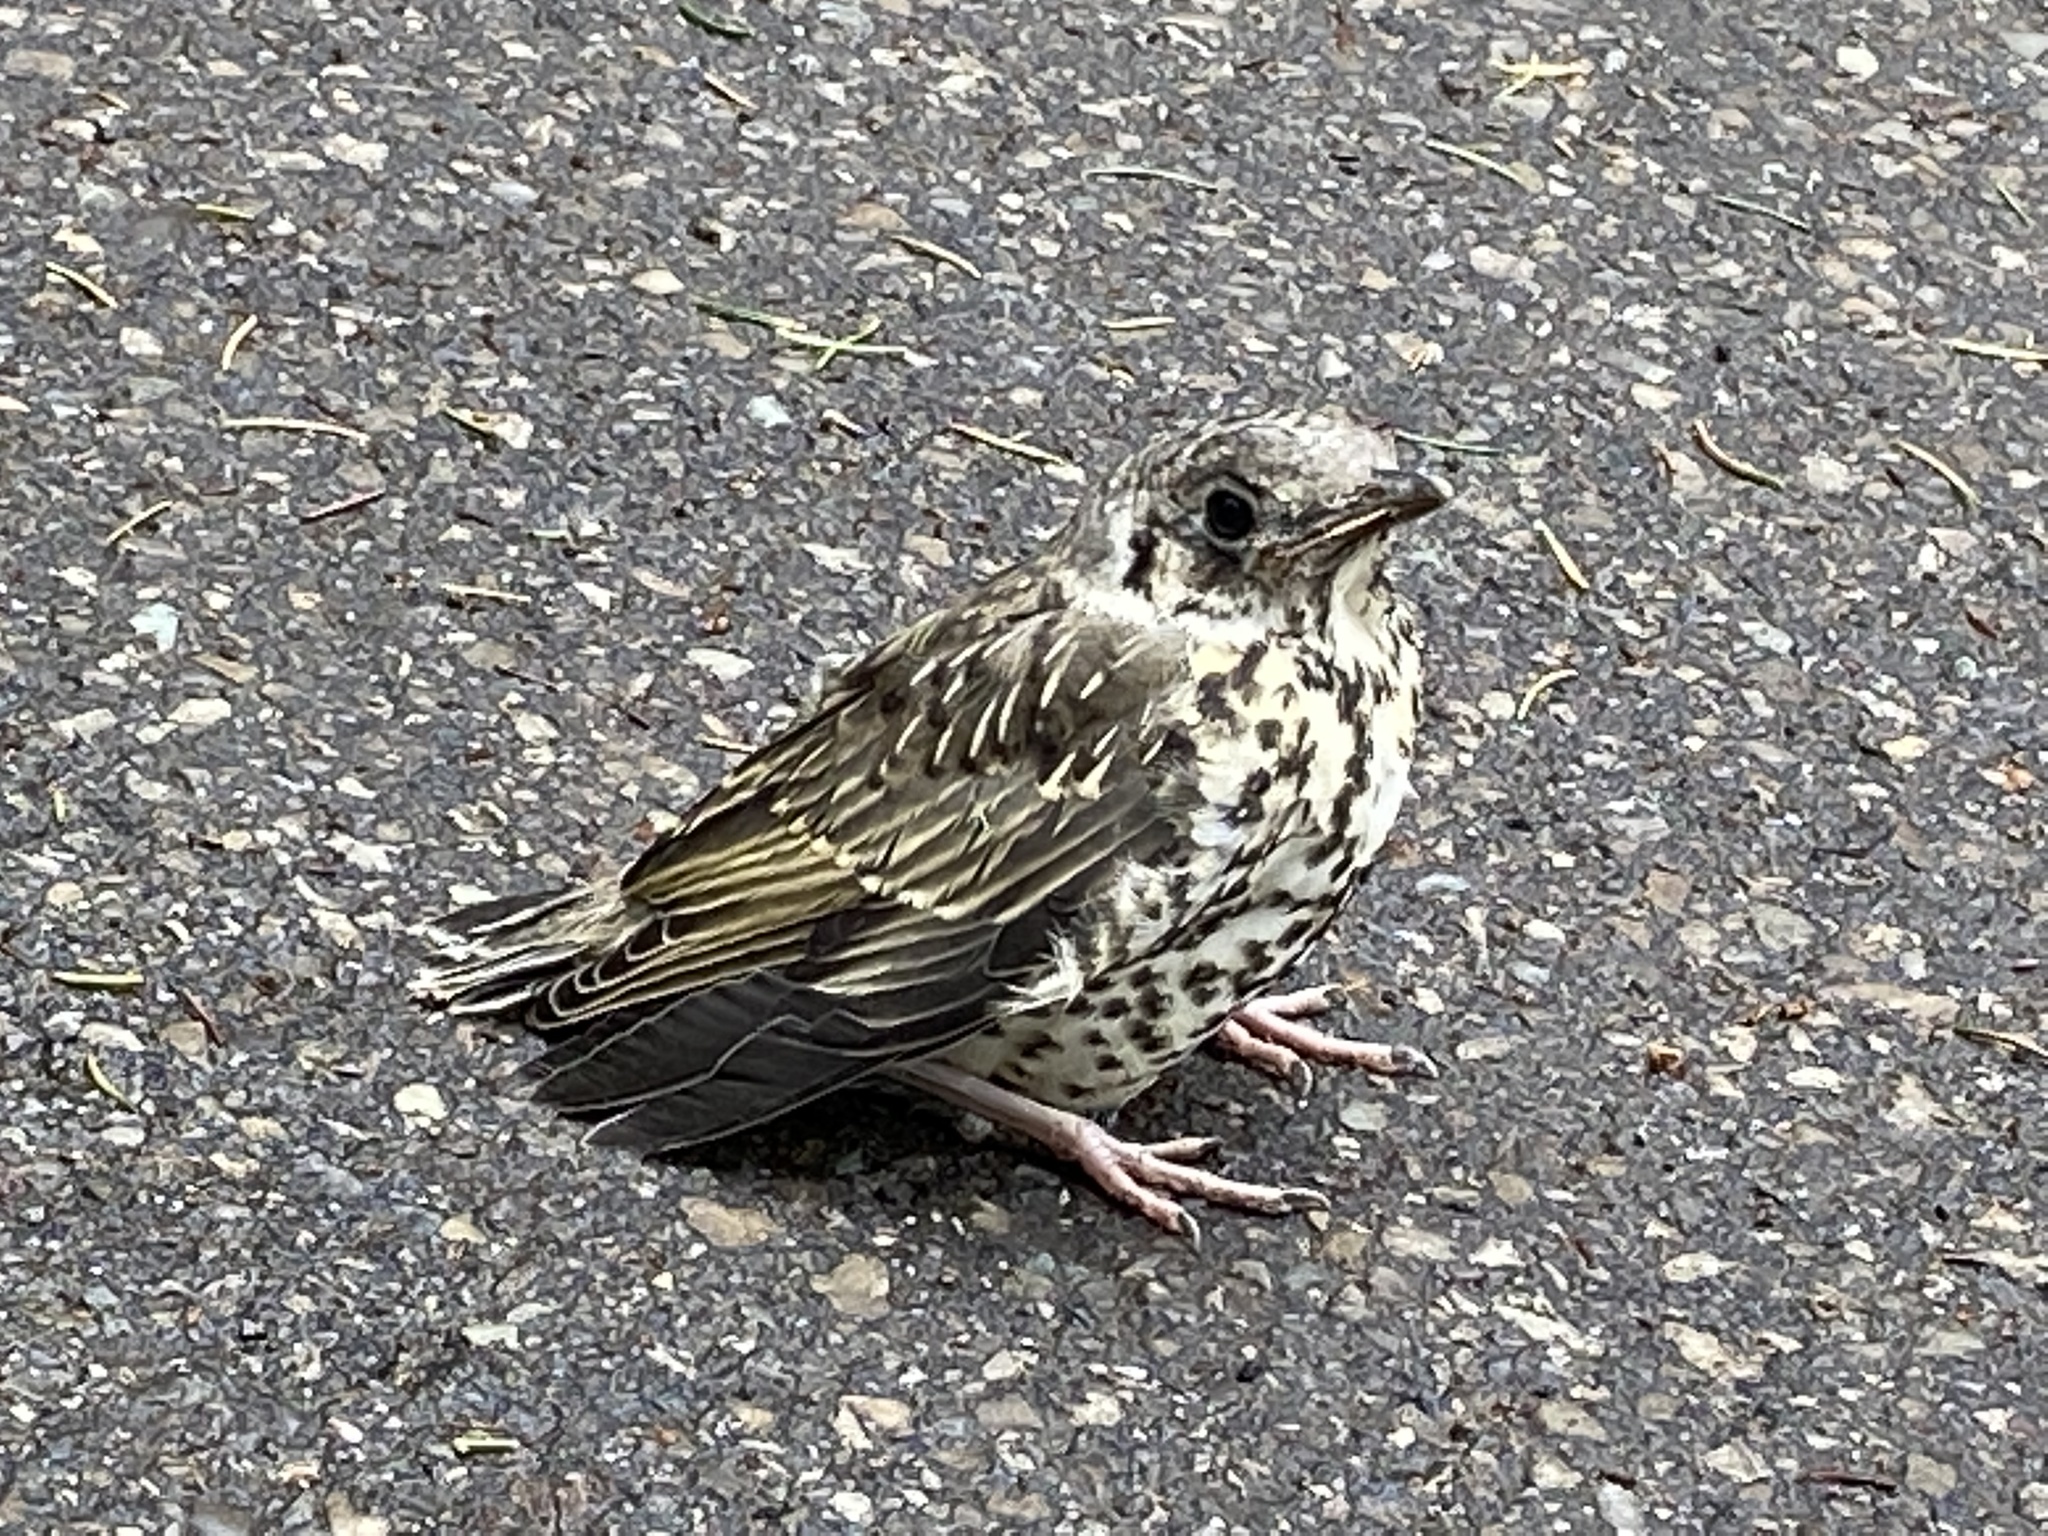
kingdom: Animalia
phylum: Chordata
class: Aves
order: Passeriformes
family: Turdidae
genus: Turdus
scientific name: Turdus viscivorus
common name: Mistle thrush
